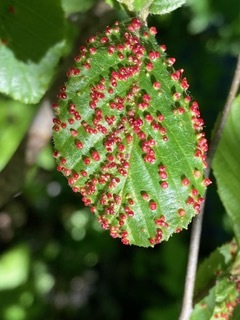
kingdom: Animalia
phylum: Arthropoda
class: Arachnida
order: Trombidiformes
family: Eriophyidae
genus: Eriophyes
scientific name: Eriophyes laevis
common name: Alder leaf gall mite
